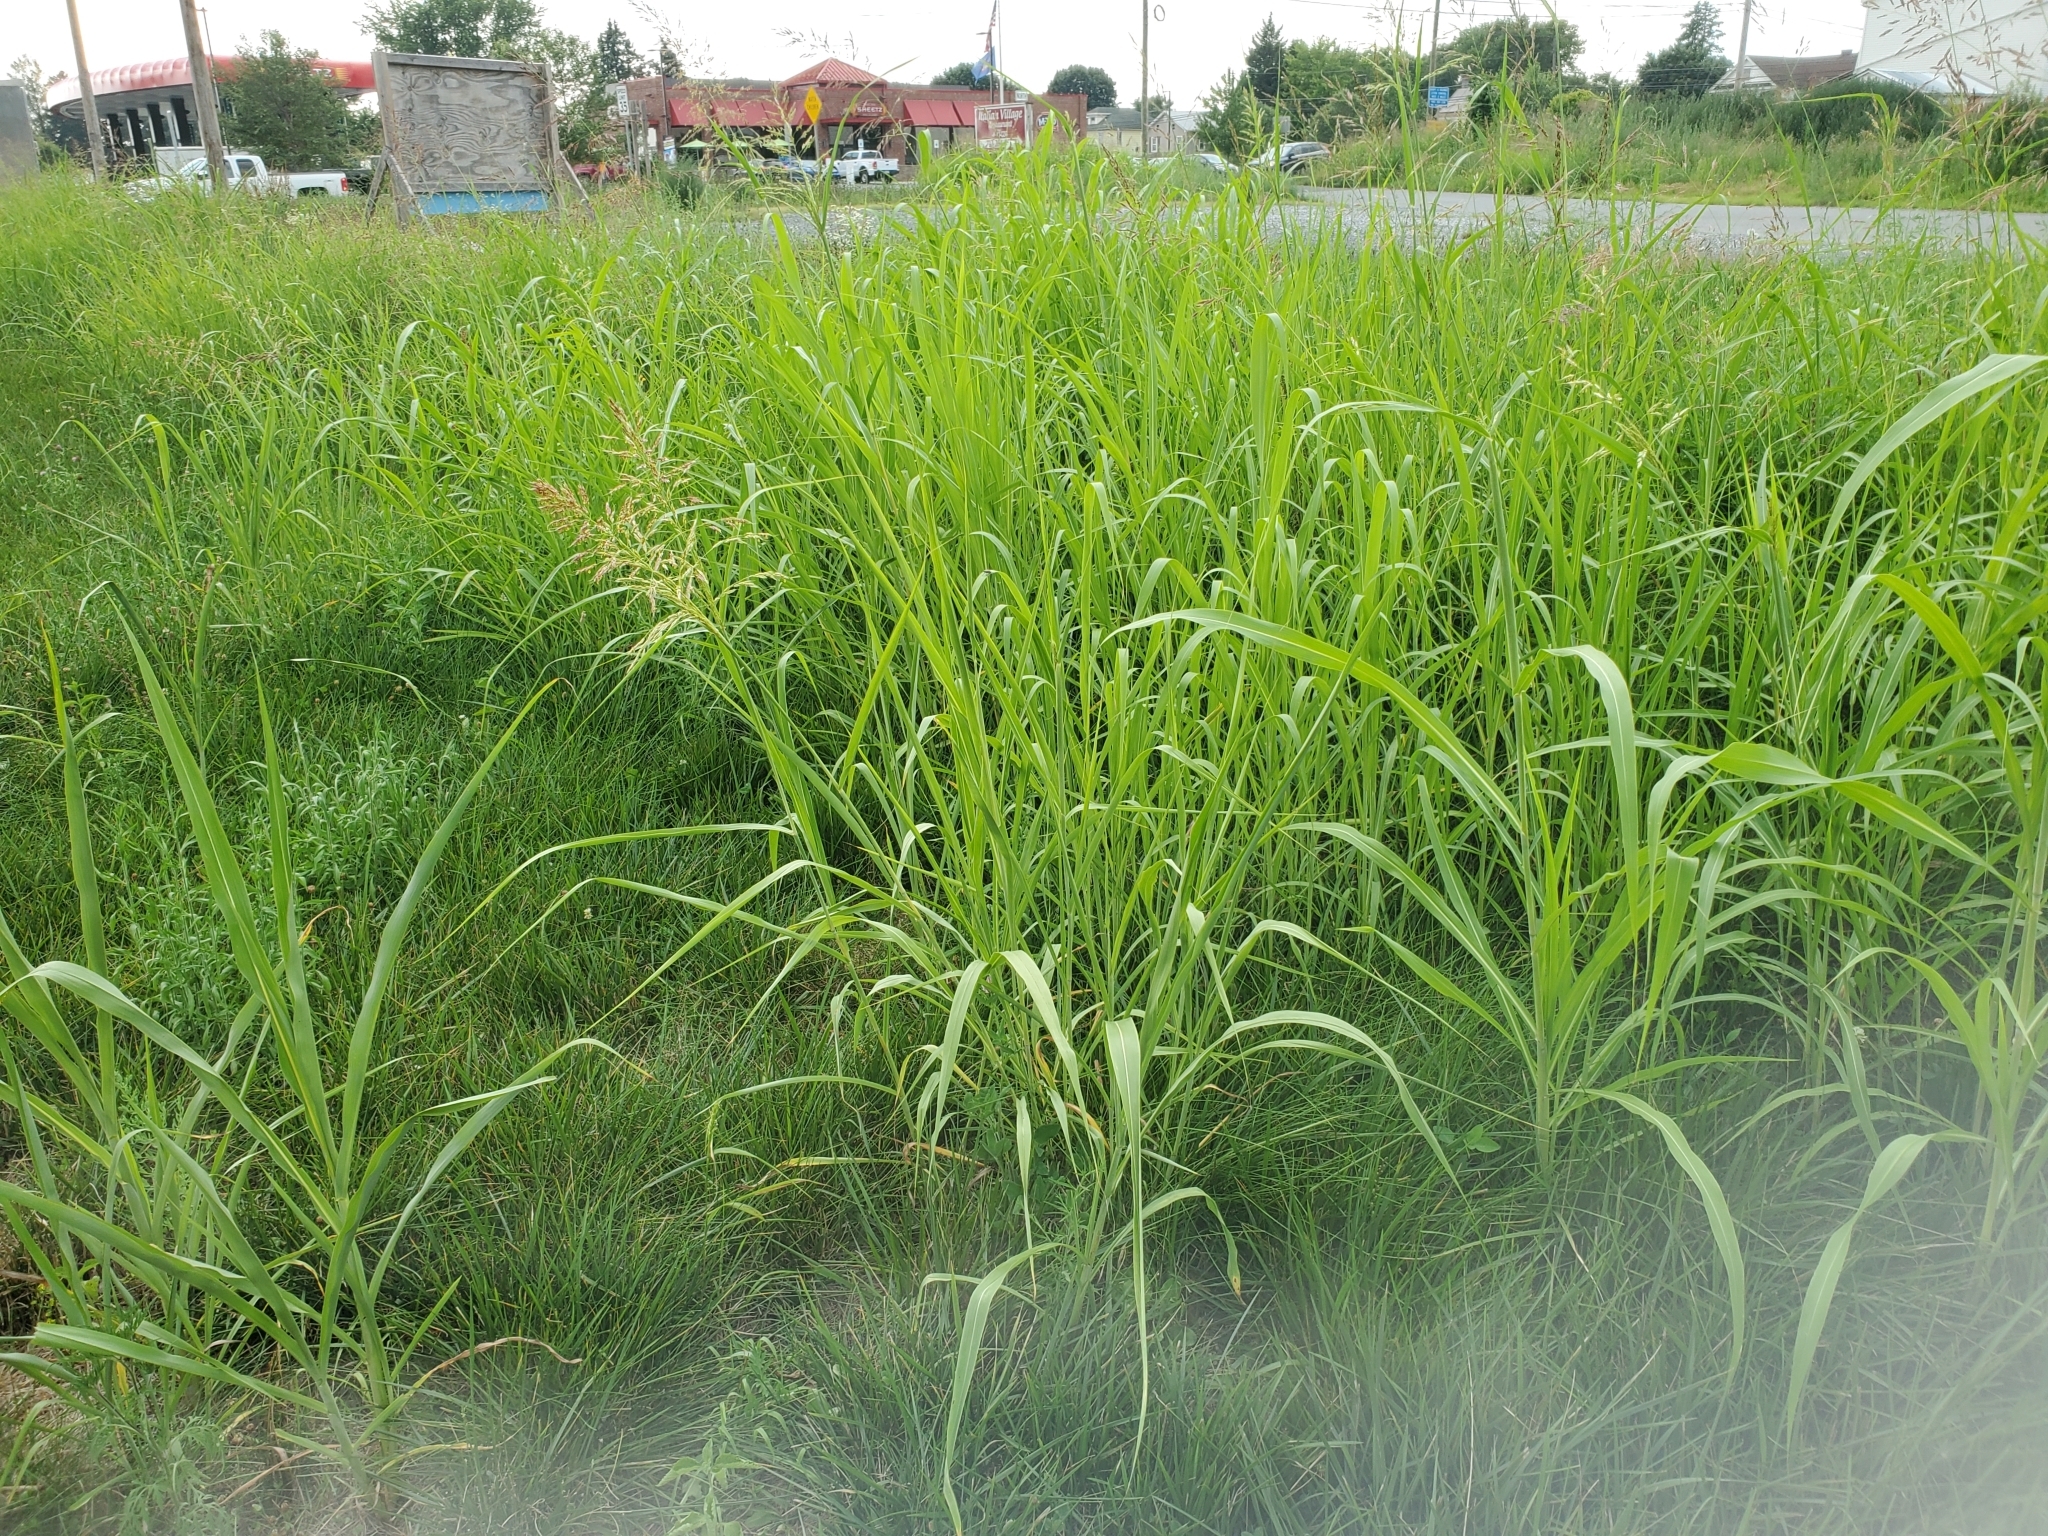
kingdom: Plantae
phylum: Tracheophyta
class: Liliopsida
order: Poales
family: Poaceae
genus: Sorghum
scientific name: Sorghum halepense
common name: Johnson-grass
